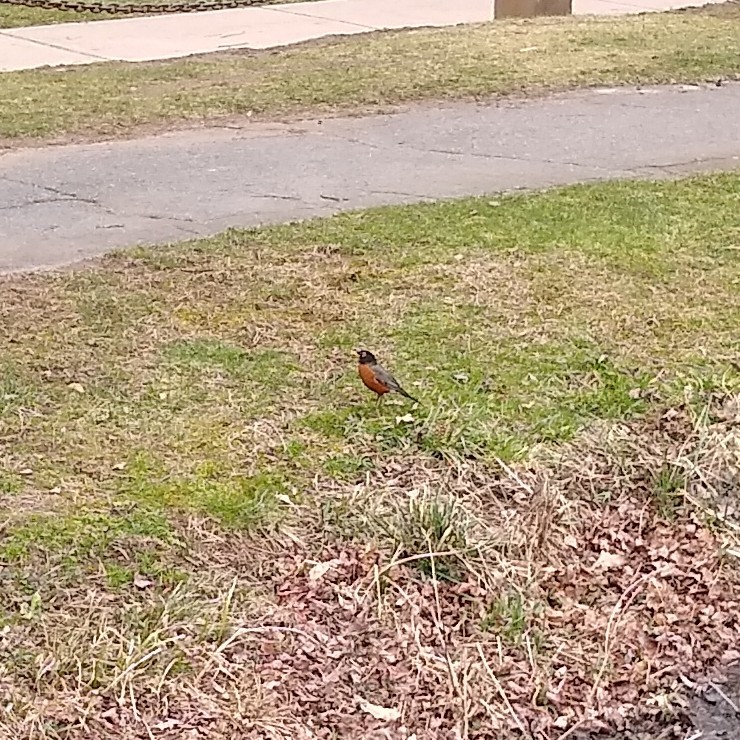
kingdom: Animalia
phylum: Chordata
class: Aves
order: Passeriformes
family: Turdidae
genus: Turdus
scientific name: Turdus migratorius
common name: American robin
